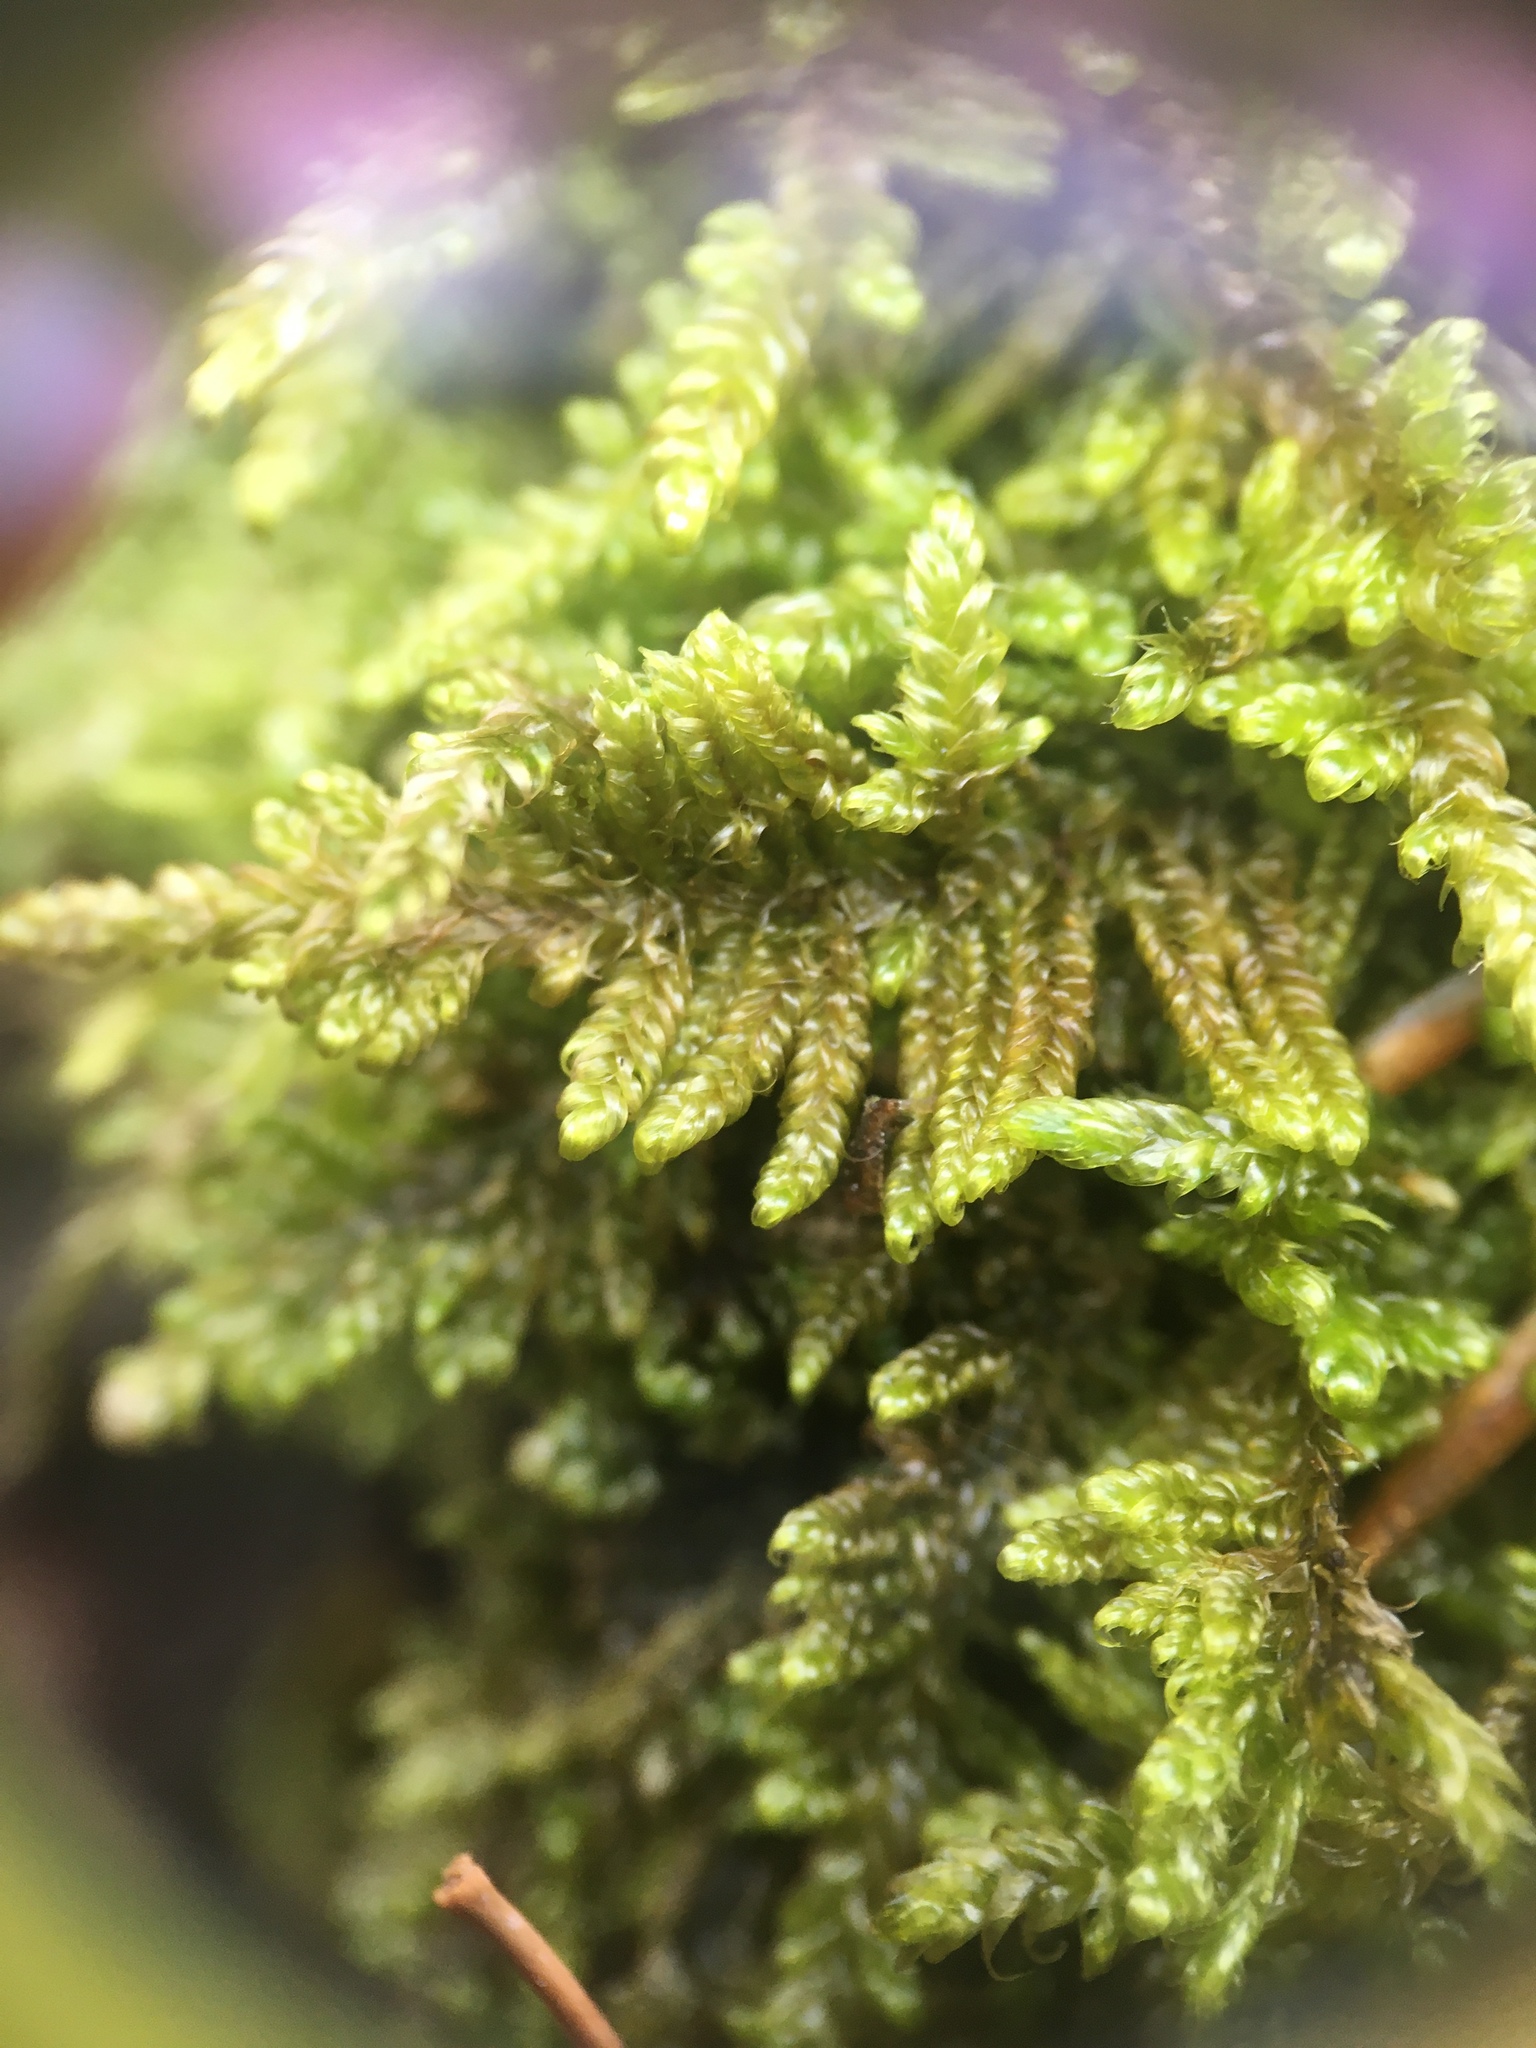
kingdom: Plantae
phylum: Bryophyta
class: Bryopsida
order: Hypnales
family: Callicladiaceae
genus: Callicladium
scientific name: Callicladium imponens
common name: Brocade moss
